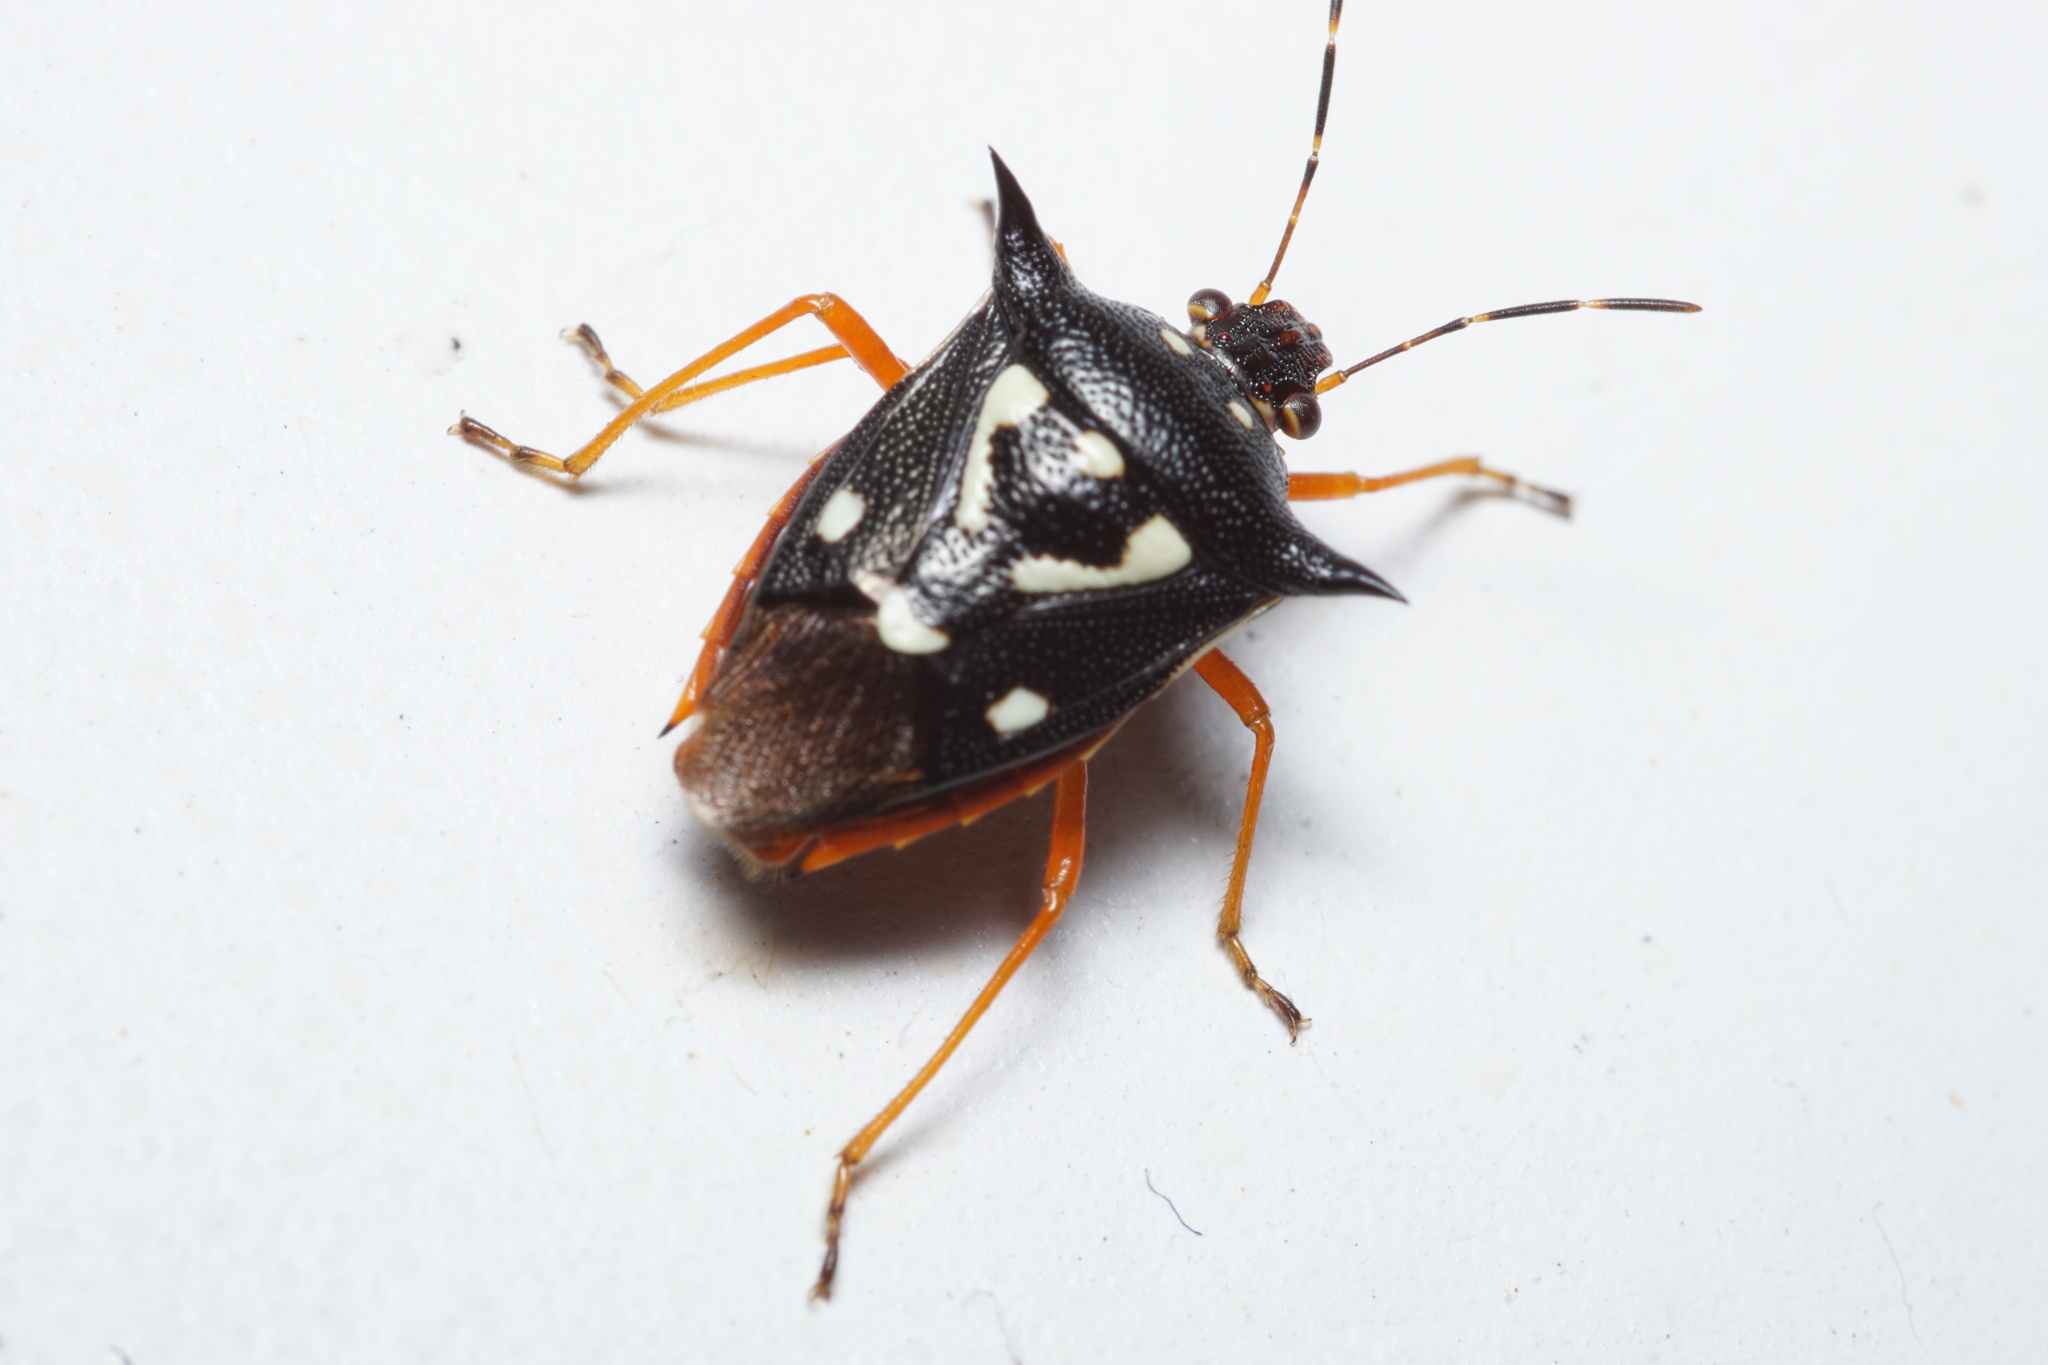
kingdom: Animalia
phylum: Arthropoda
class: Insecta
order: Hemiptera
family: Pentatomidae
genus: Mormidea
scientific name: Mormidea v-luteum
